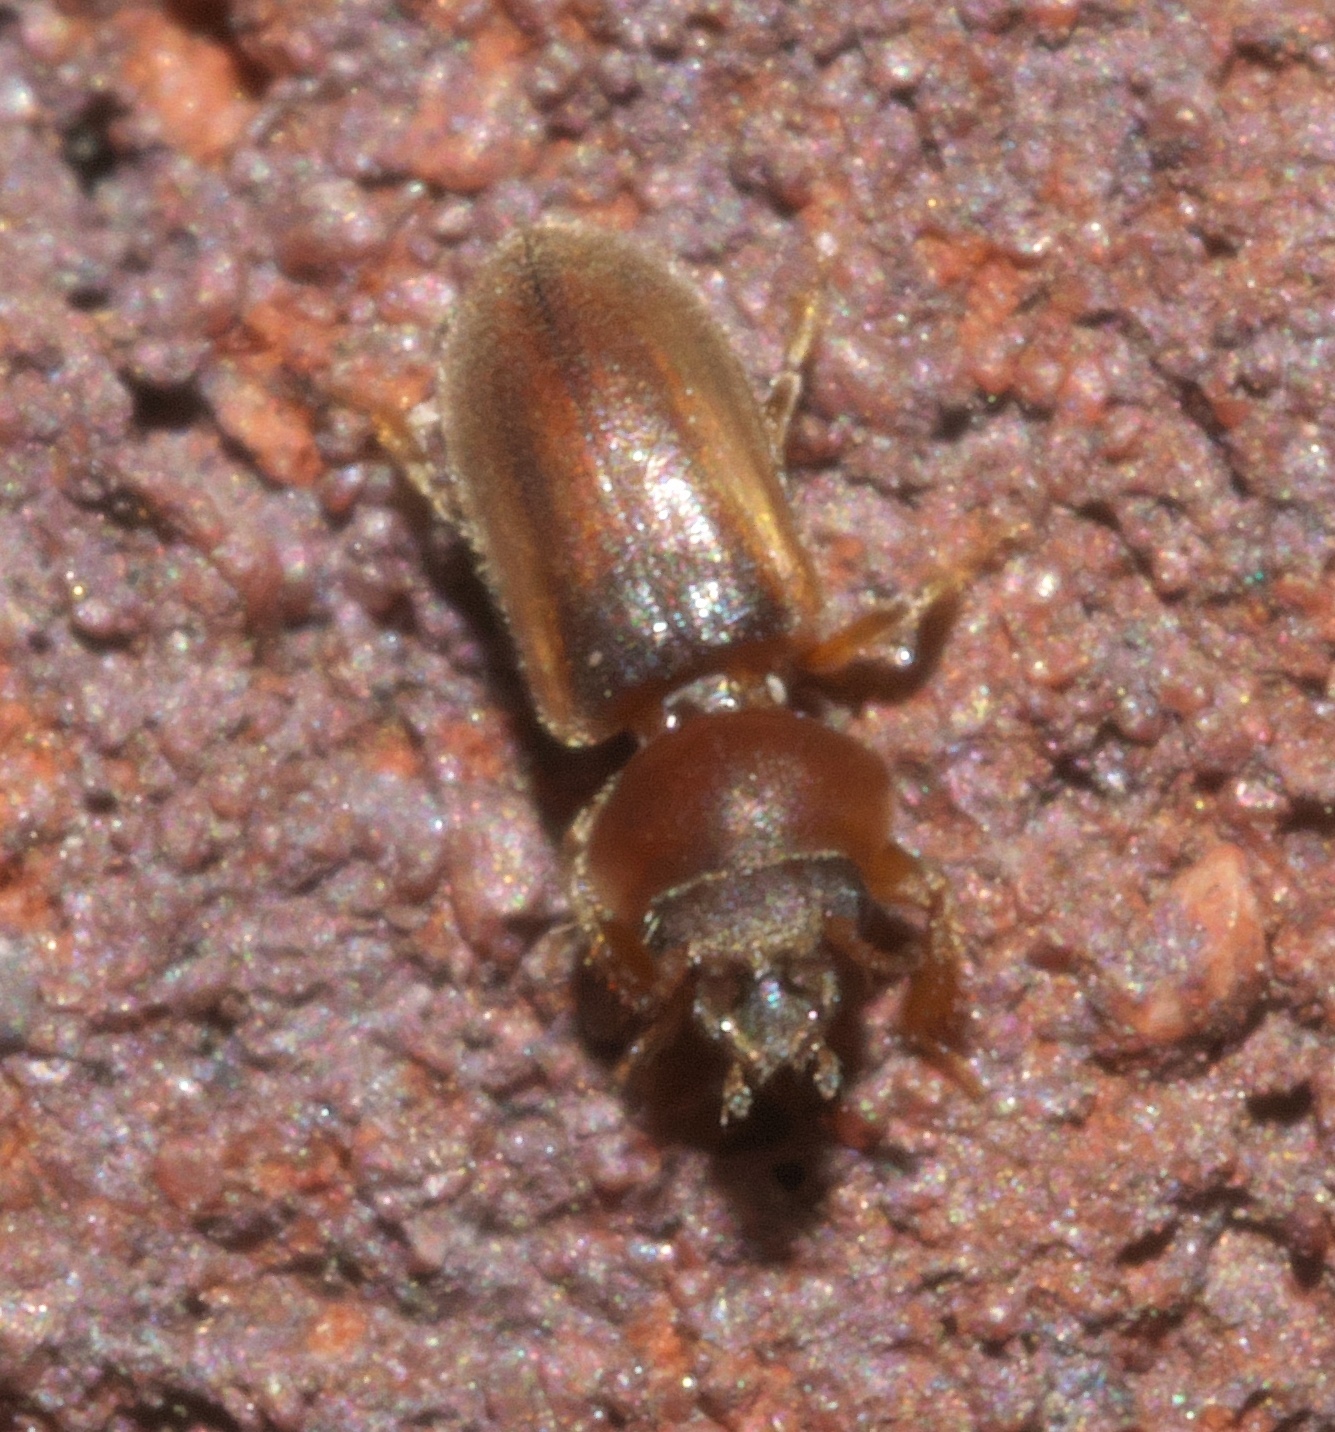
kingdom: Animalia
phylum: Arthropoda
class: Insecta
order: Coleoptera
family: Heteroceridae
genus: Tropicus
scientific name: Tropicus pusillus
